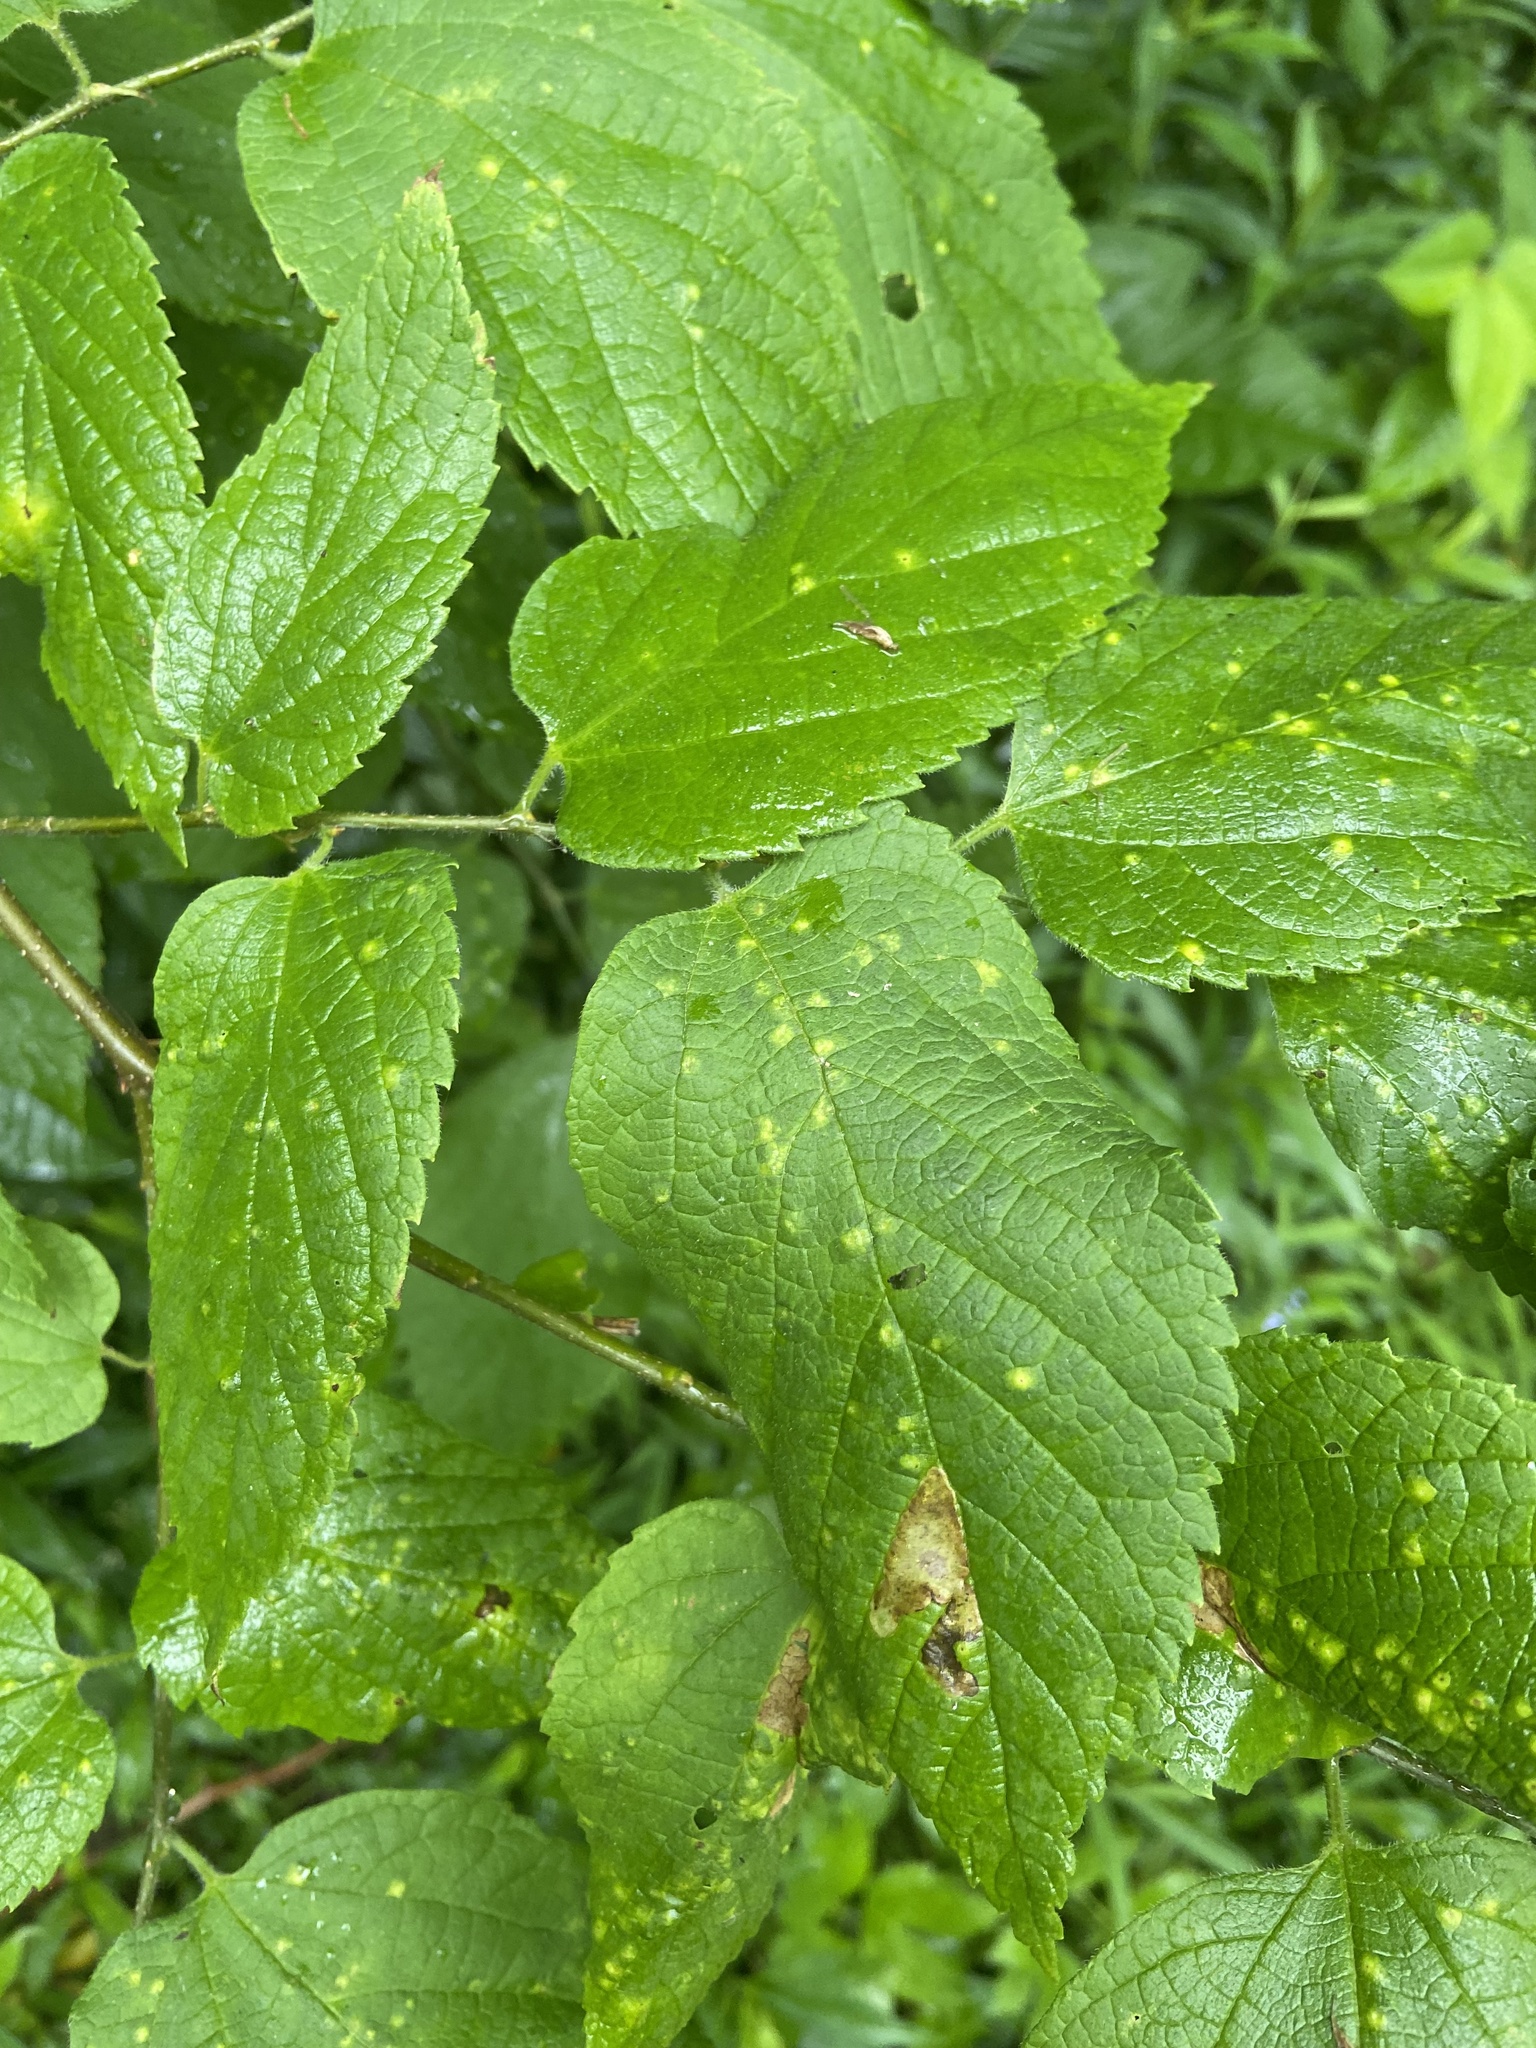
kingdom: Animalia
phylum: Arthropoda
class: Insecta
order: Hemiptera
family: Aphalaridae
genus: Pachypsylla
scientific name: Pachypsylla venusta
